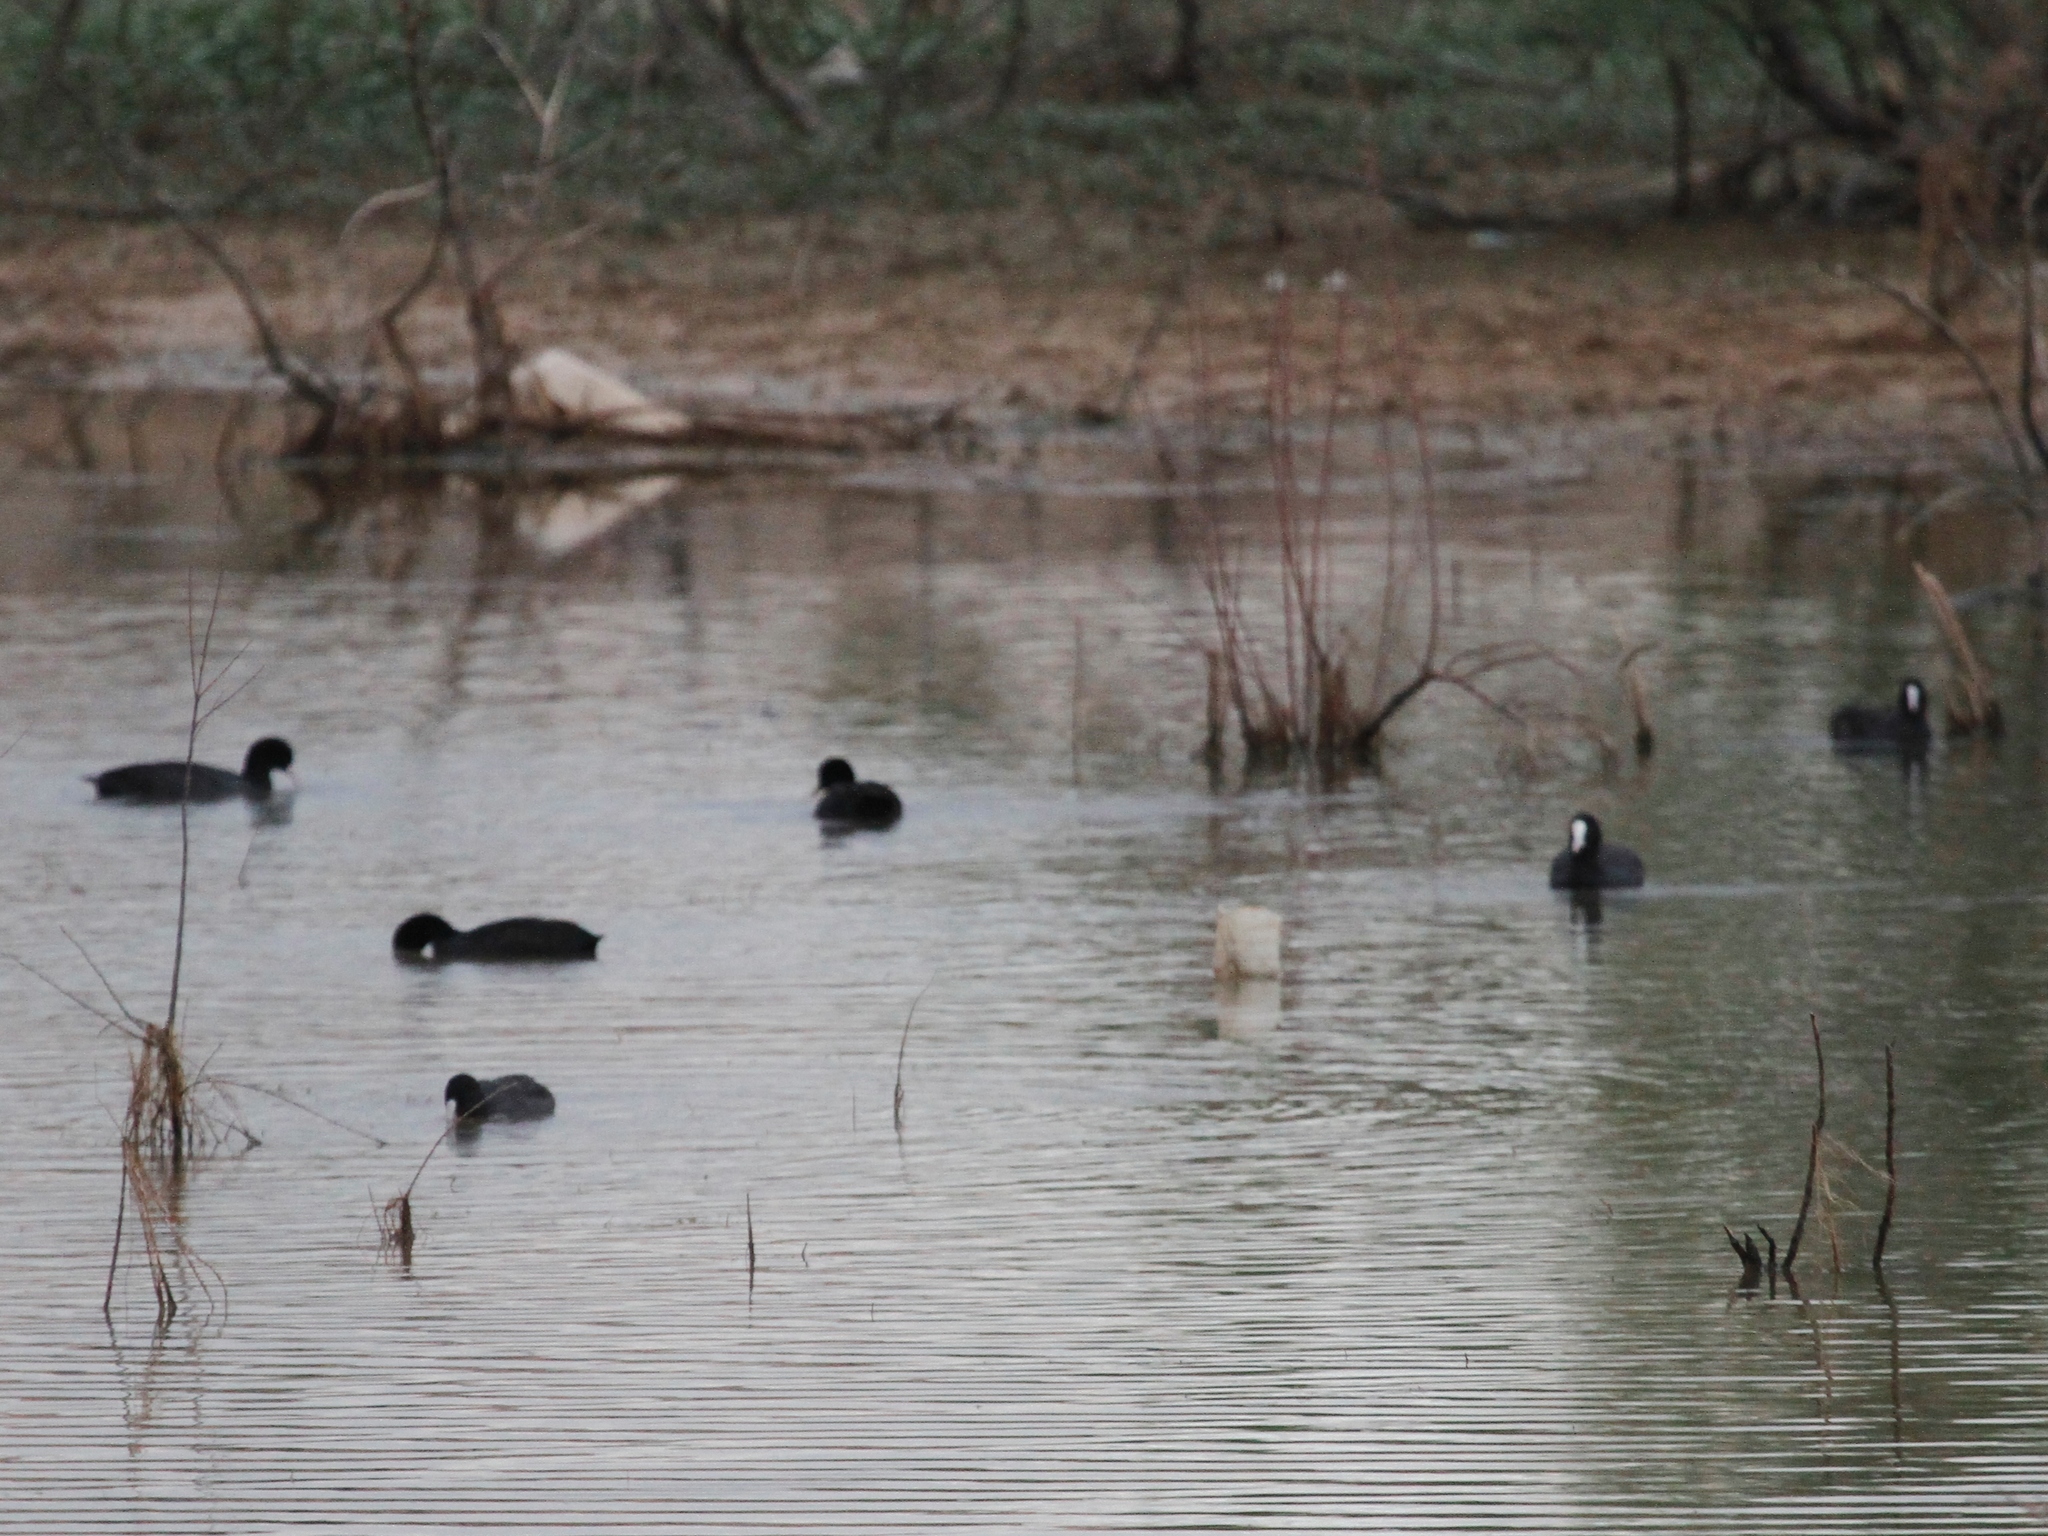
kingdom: Animalia
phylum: Chordata
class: Aves
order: Gruiformes
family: Rallidae
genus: Fulica
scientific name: Fulica atra
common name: Eurasian coot
